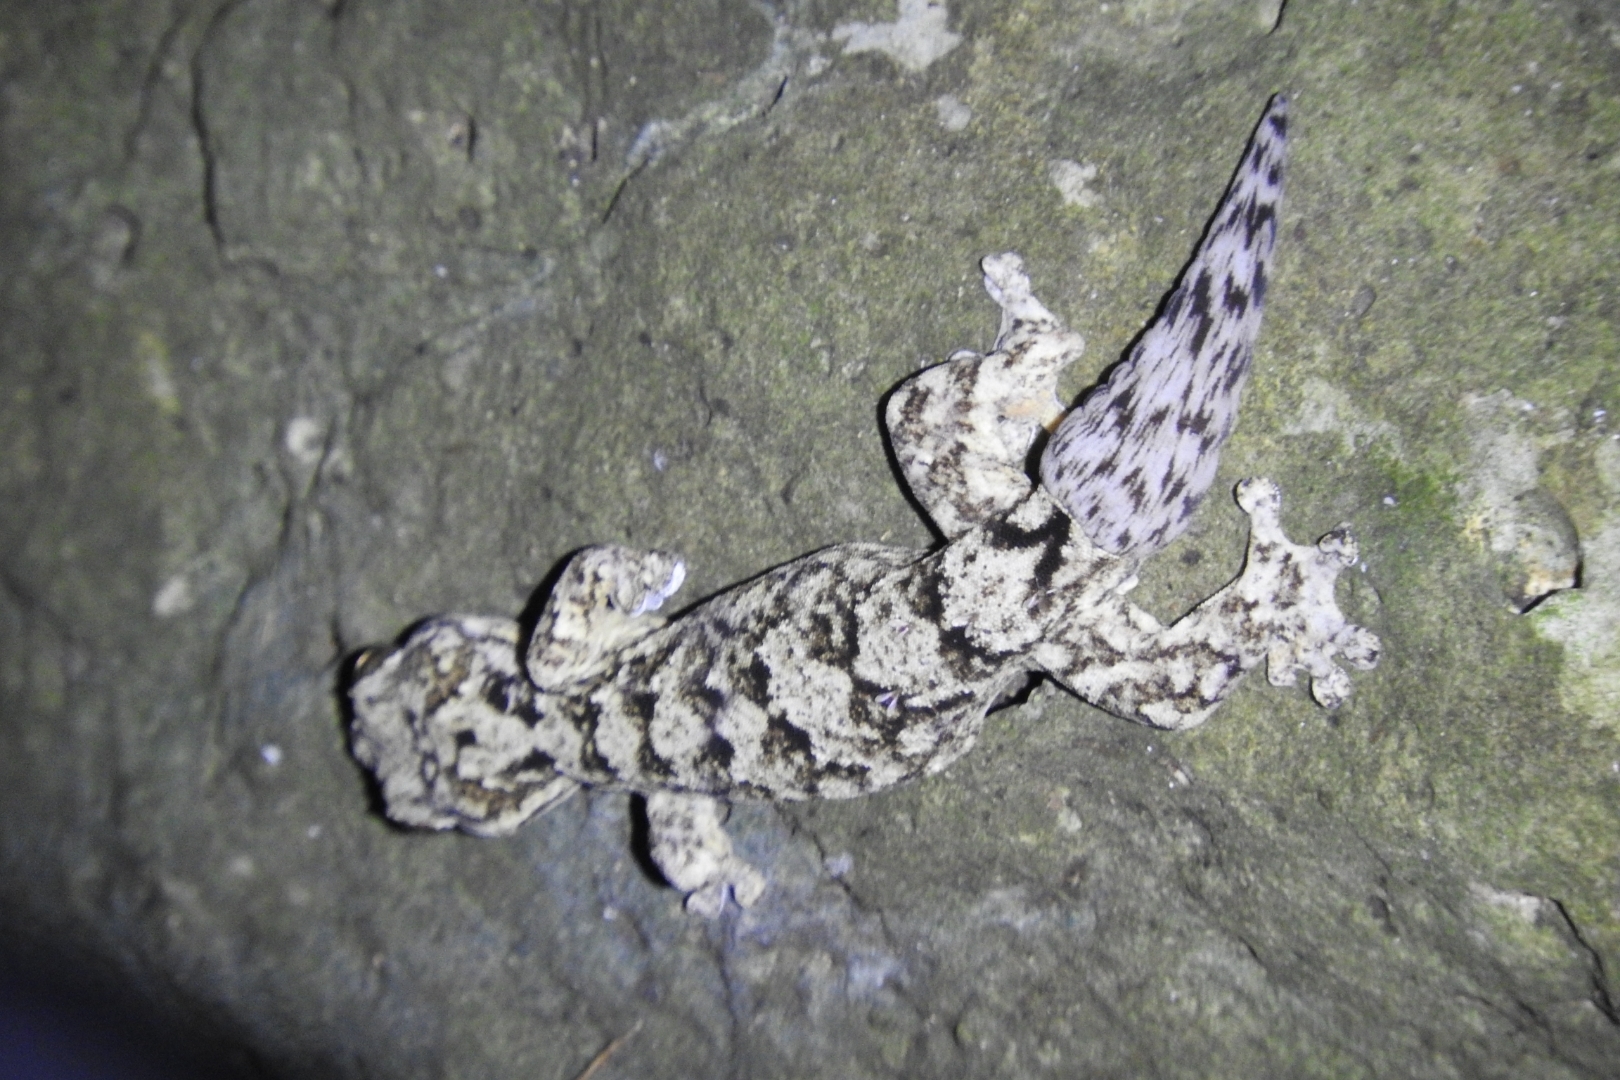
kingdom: Animalia
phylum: Chordata
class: Squamata
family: Phyllodactylidae
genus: Thecadactylus
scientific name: Thecadactylus rapicauda
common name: Turnip-tailed gecko
